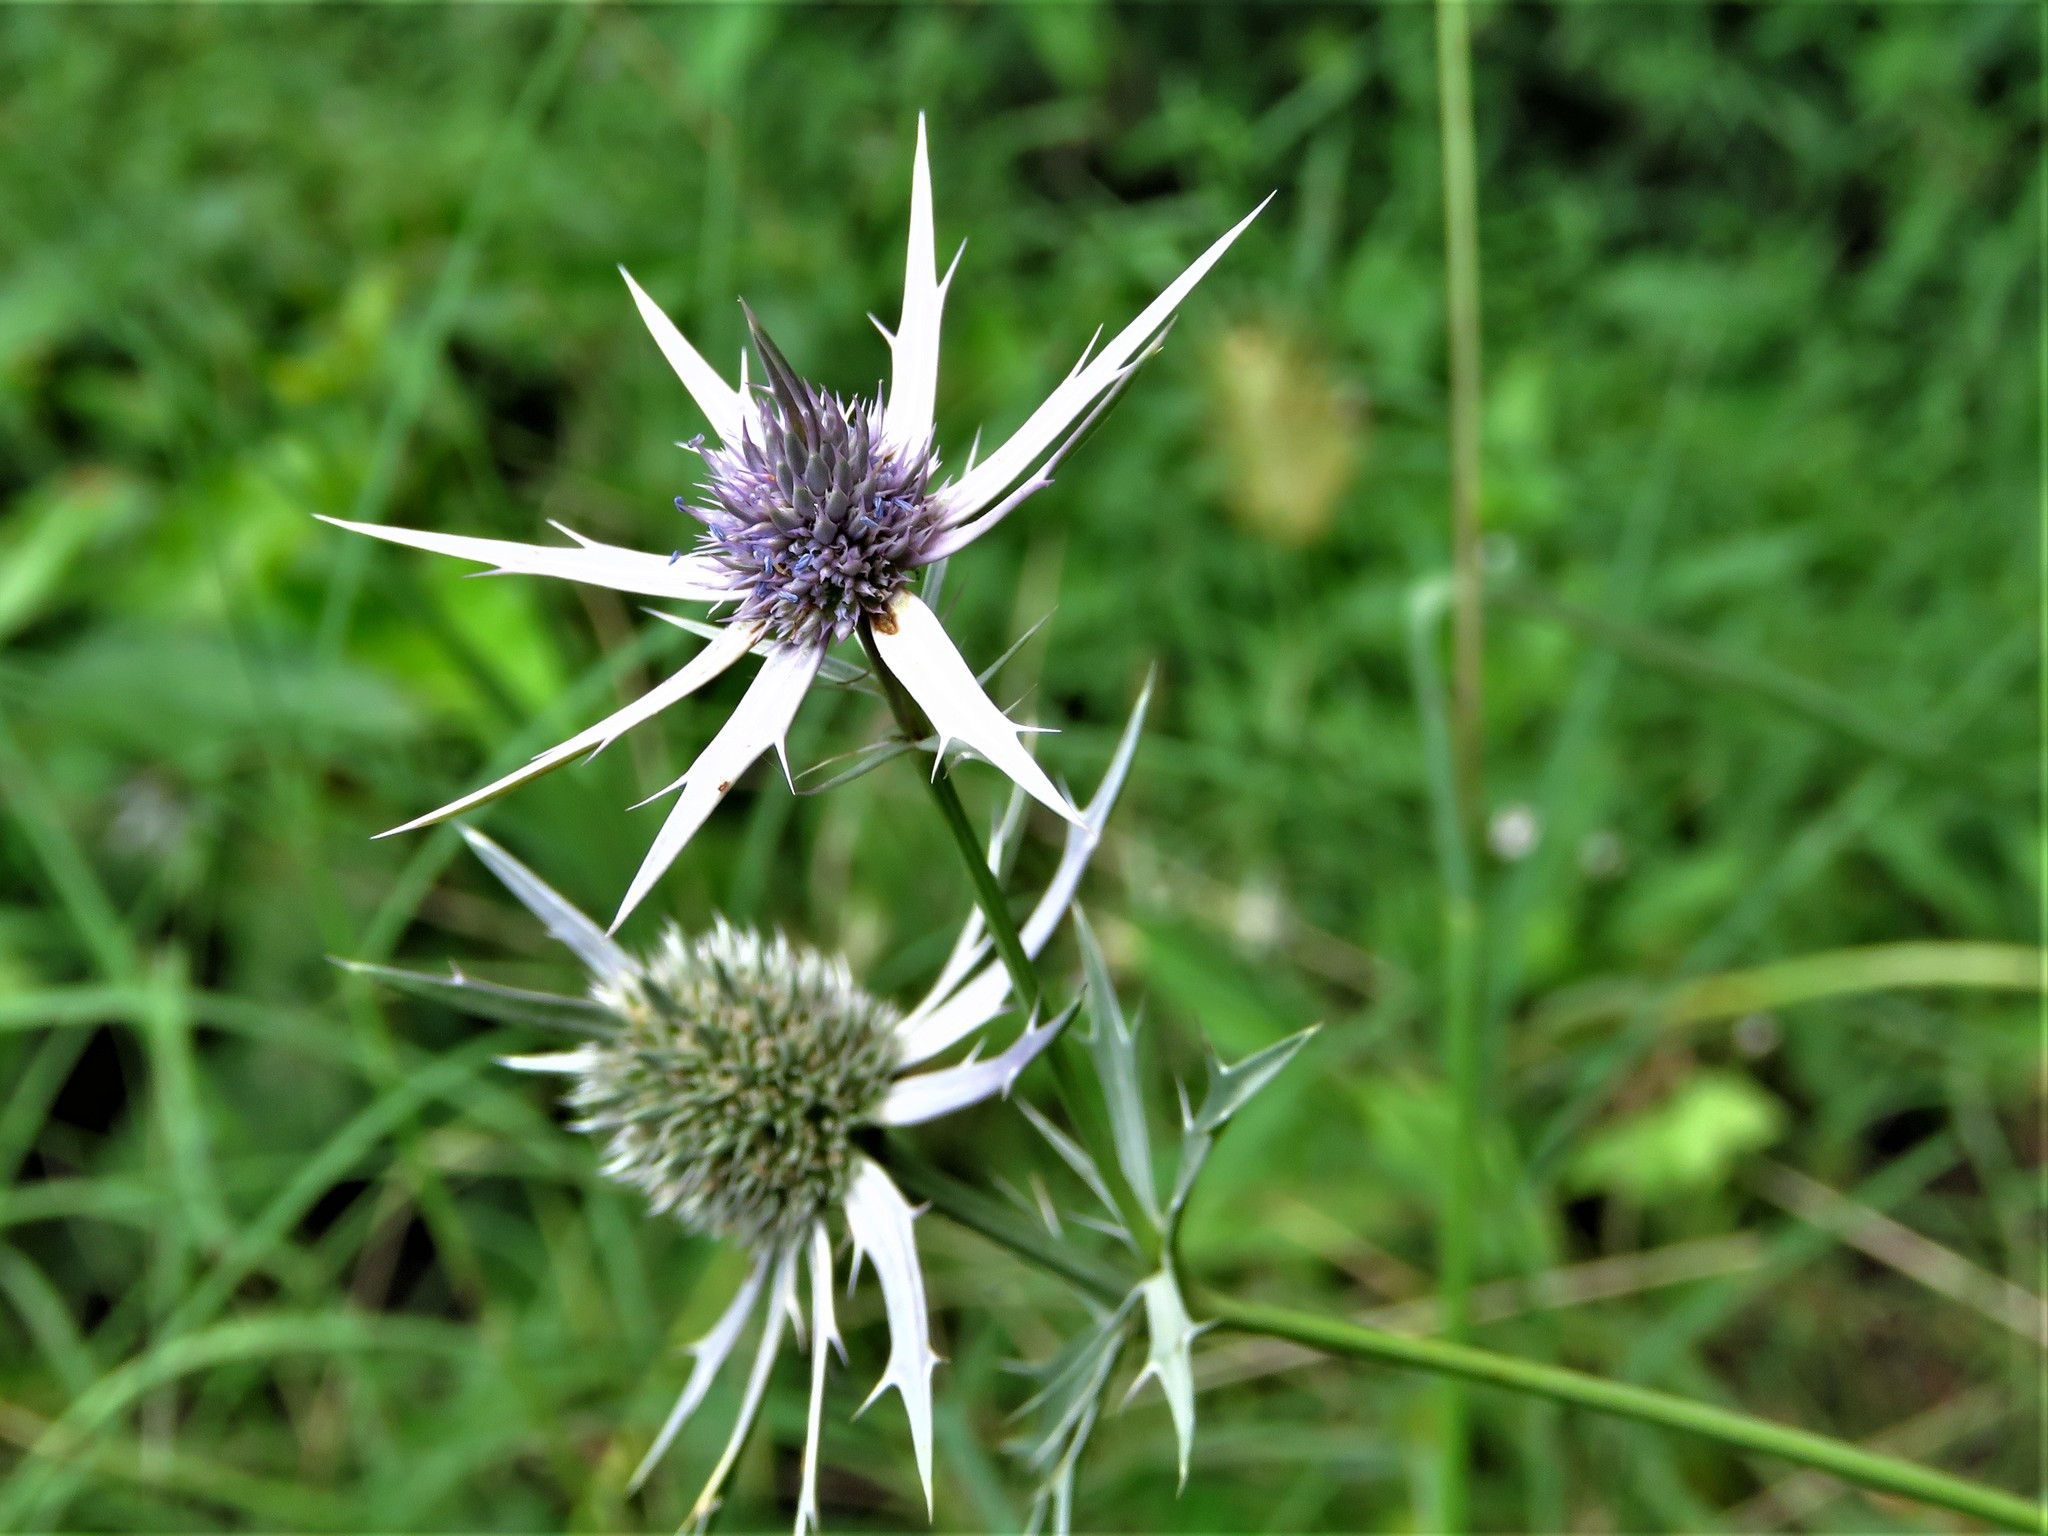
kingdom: Plantae
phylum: Tracheophyta
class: Magnoliopsida
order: Apiales
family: Apiaceae
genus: Eryngium
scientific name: Eryngium hookeri
